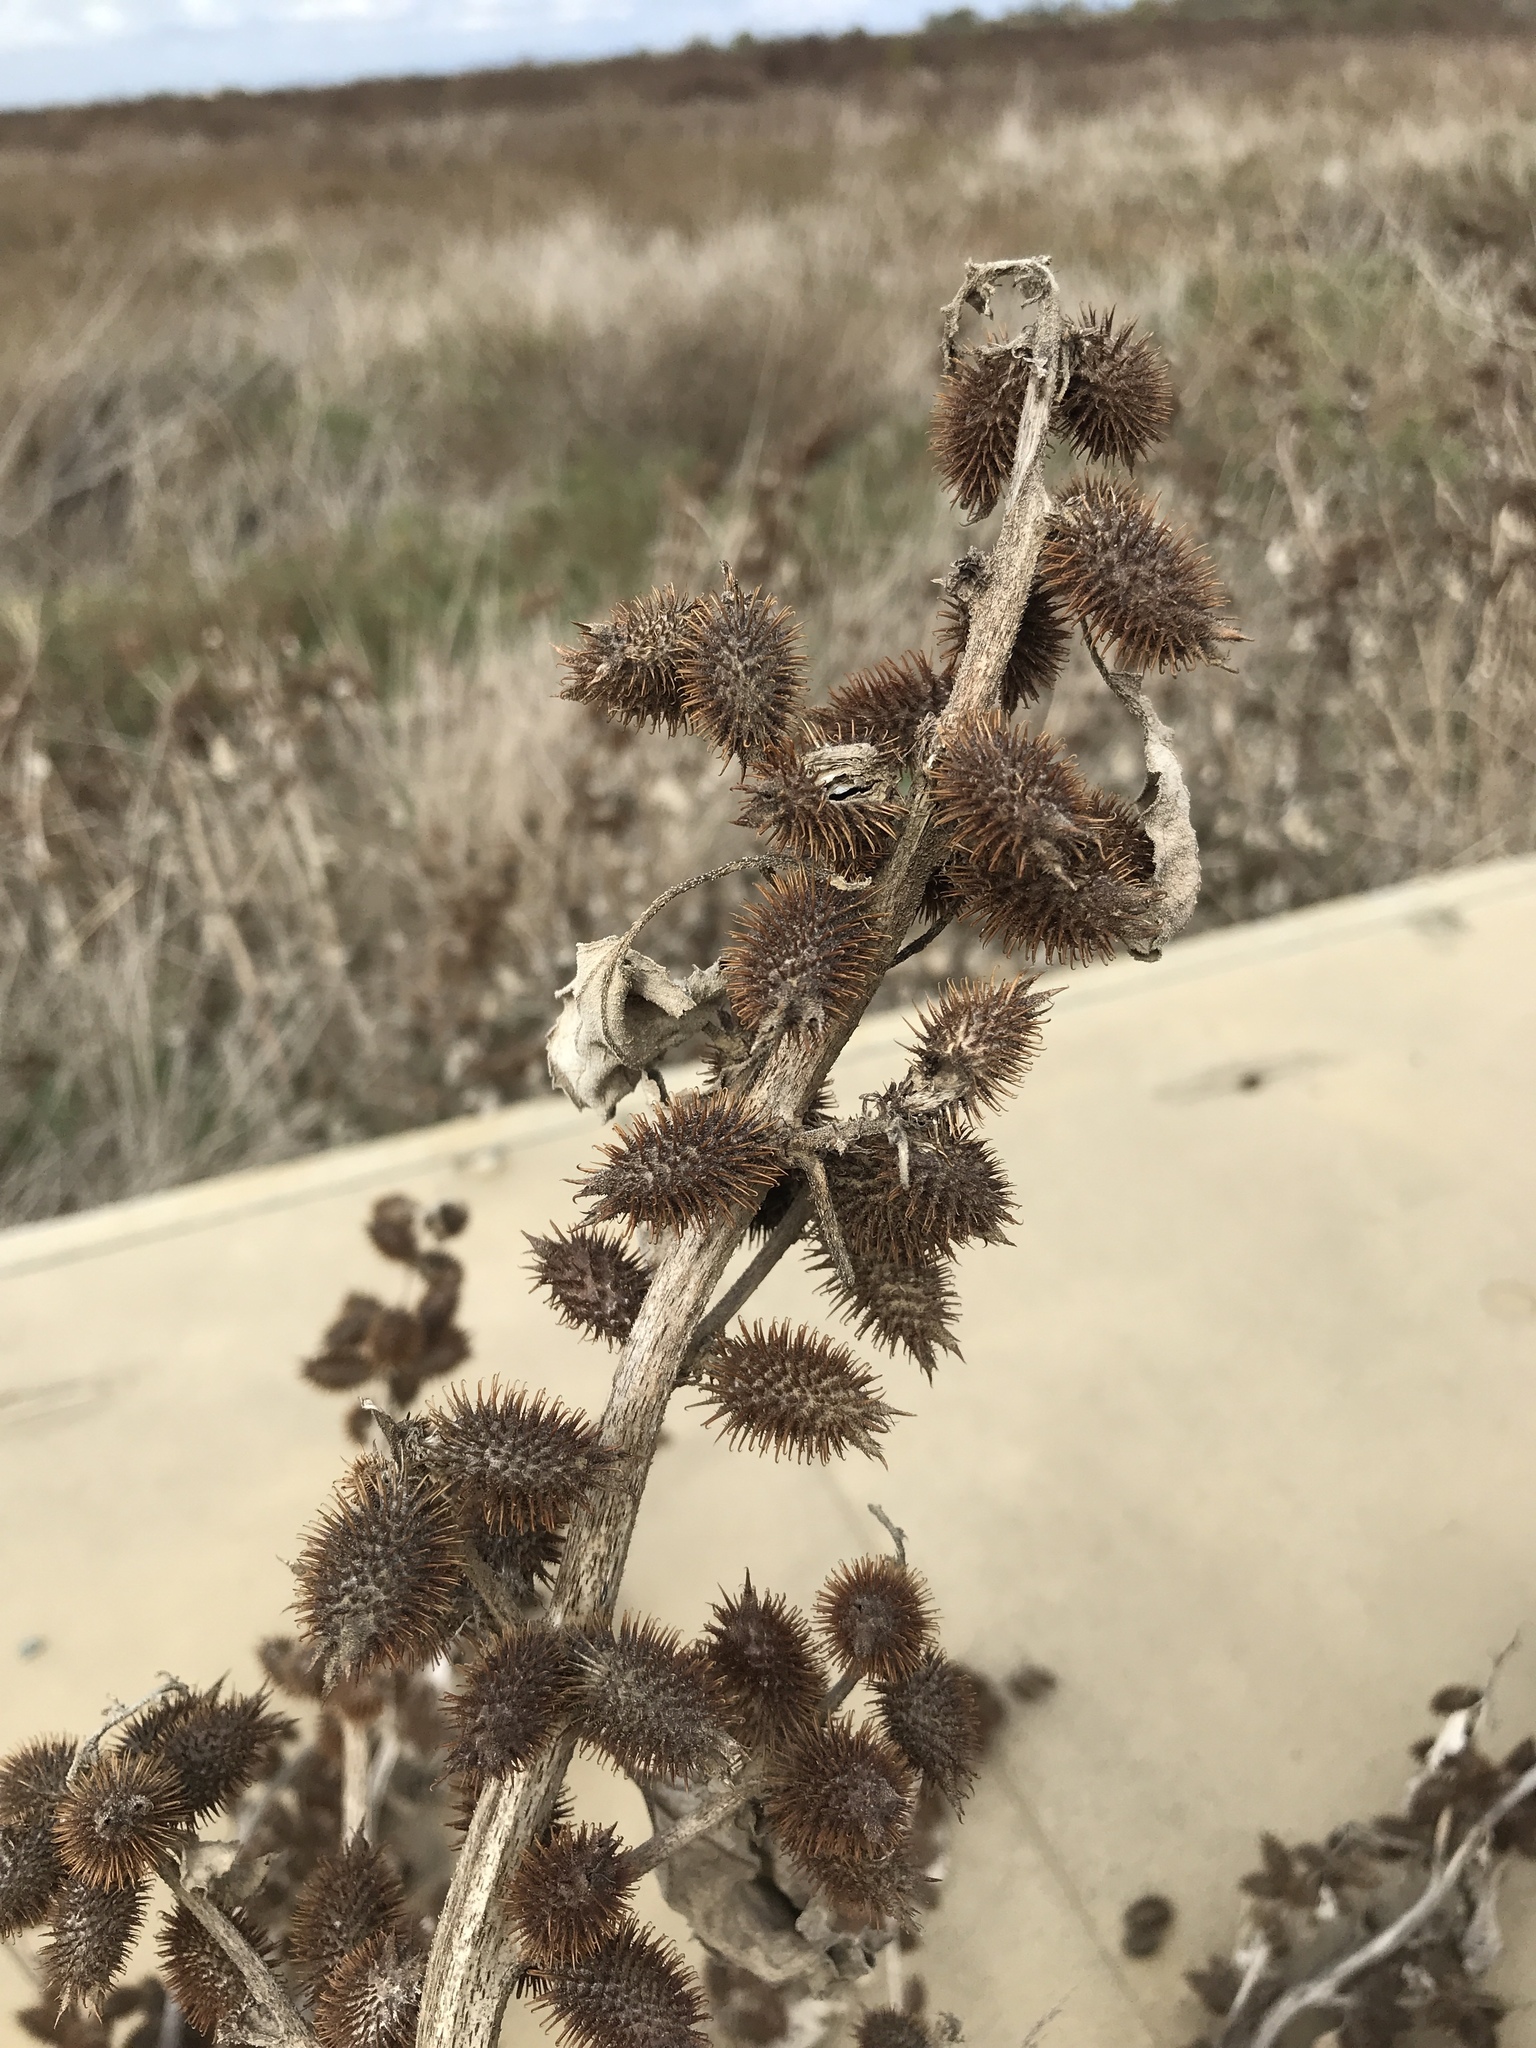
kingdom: Plantae
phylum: Tracheophyta
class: Magnoliopsida
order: Asterales
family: Asteraceae
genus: Xanthium
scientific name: Xanthium strumarium
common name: Rough cocklebur
